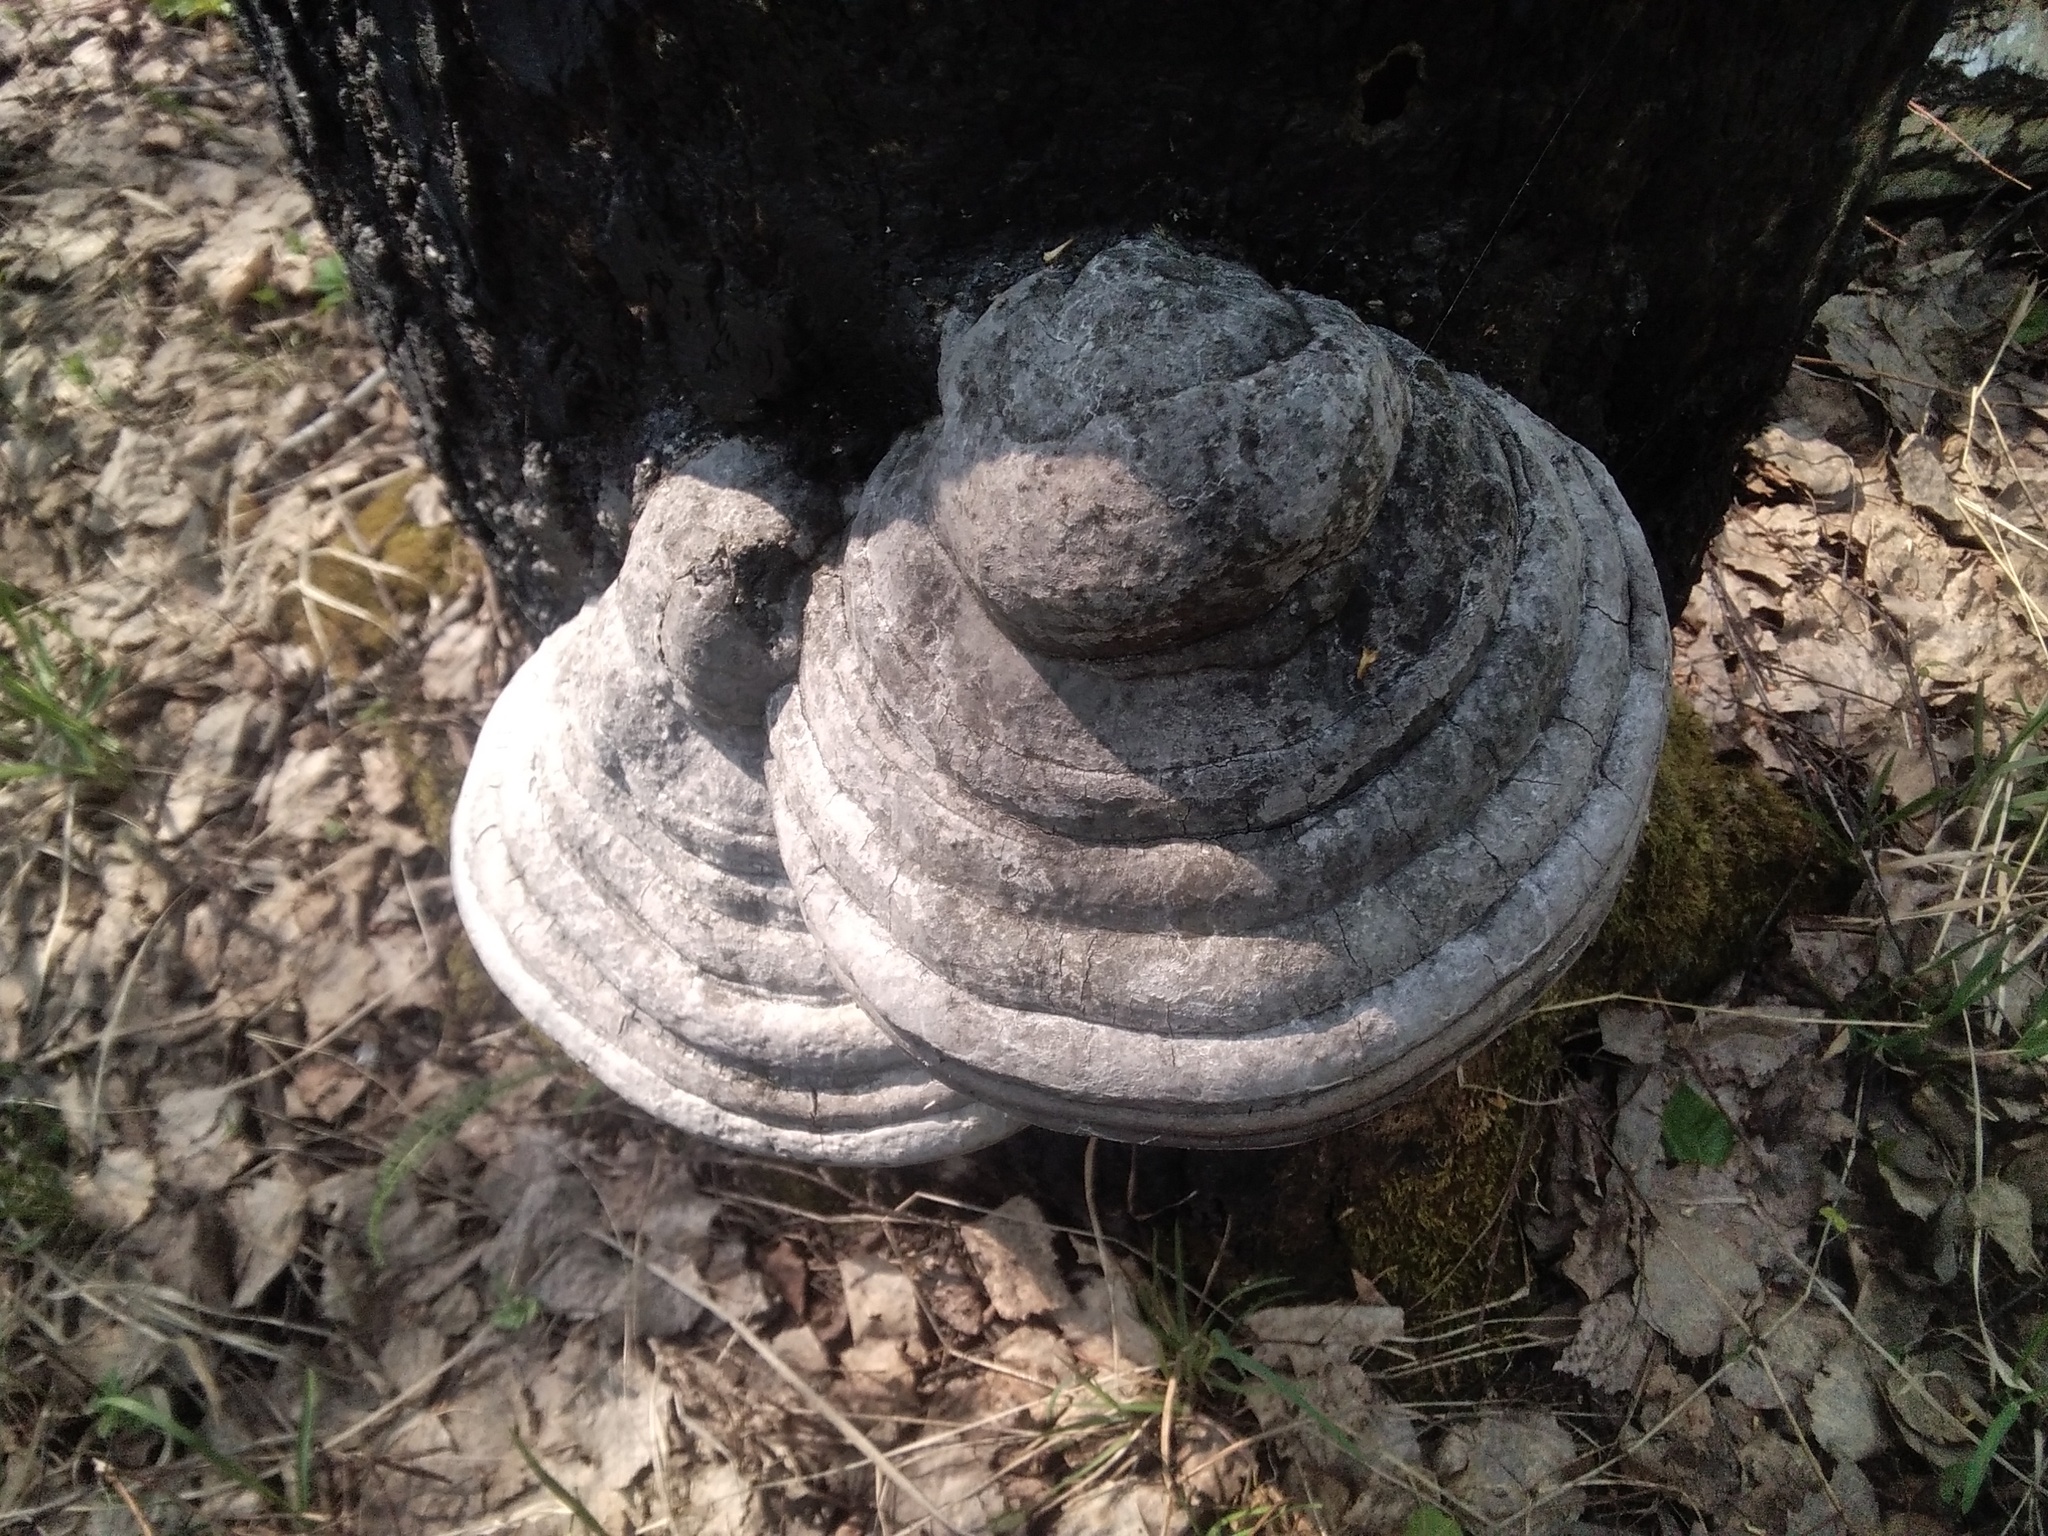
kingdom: Fungi
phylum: Basidiomycota
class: Agaricomycetes
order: Polyporales
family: Polyporaceae
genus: Fomes
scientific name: Fomes fomentarius
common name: Hoof fungus
